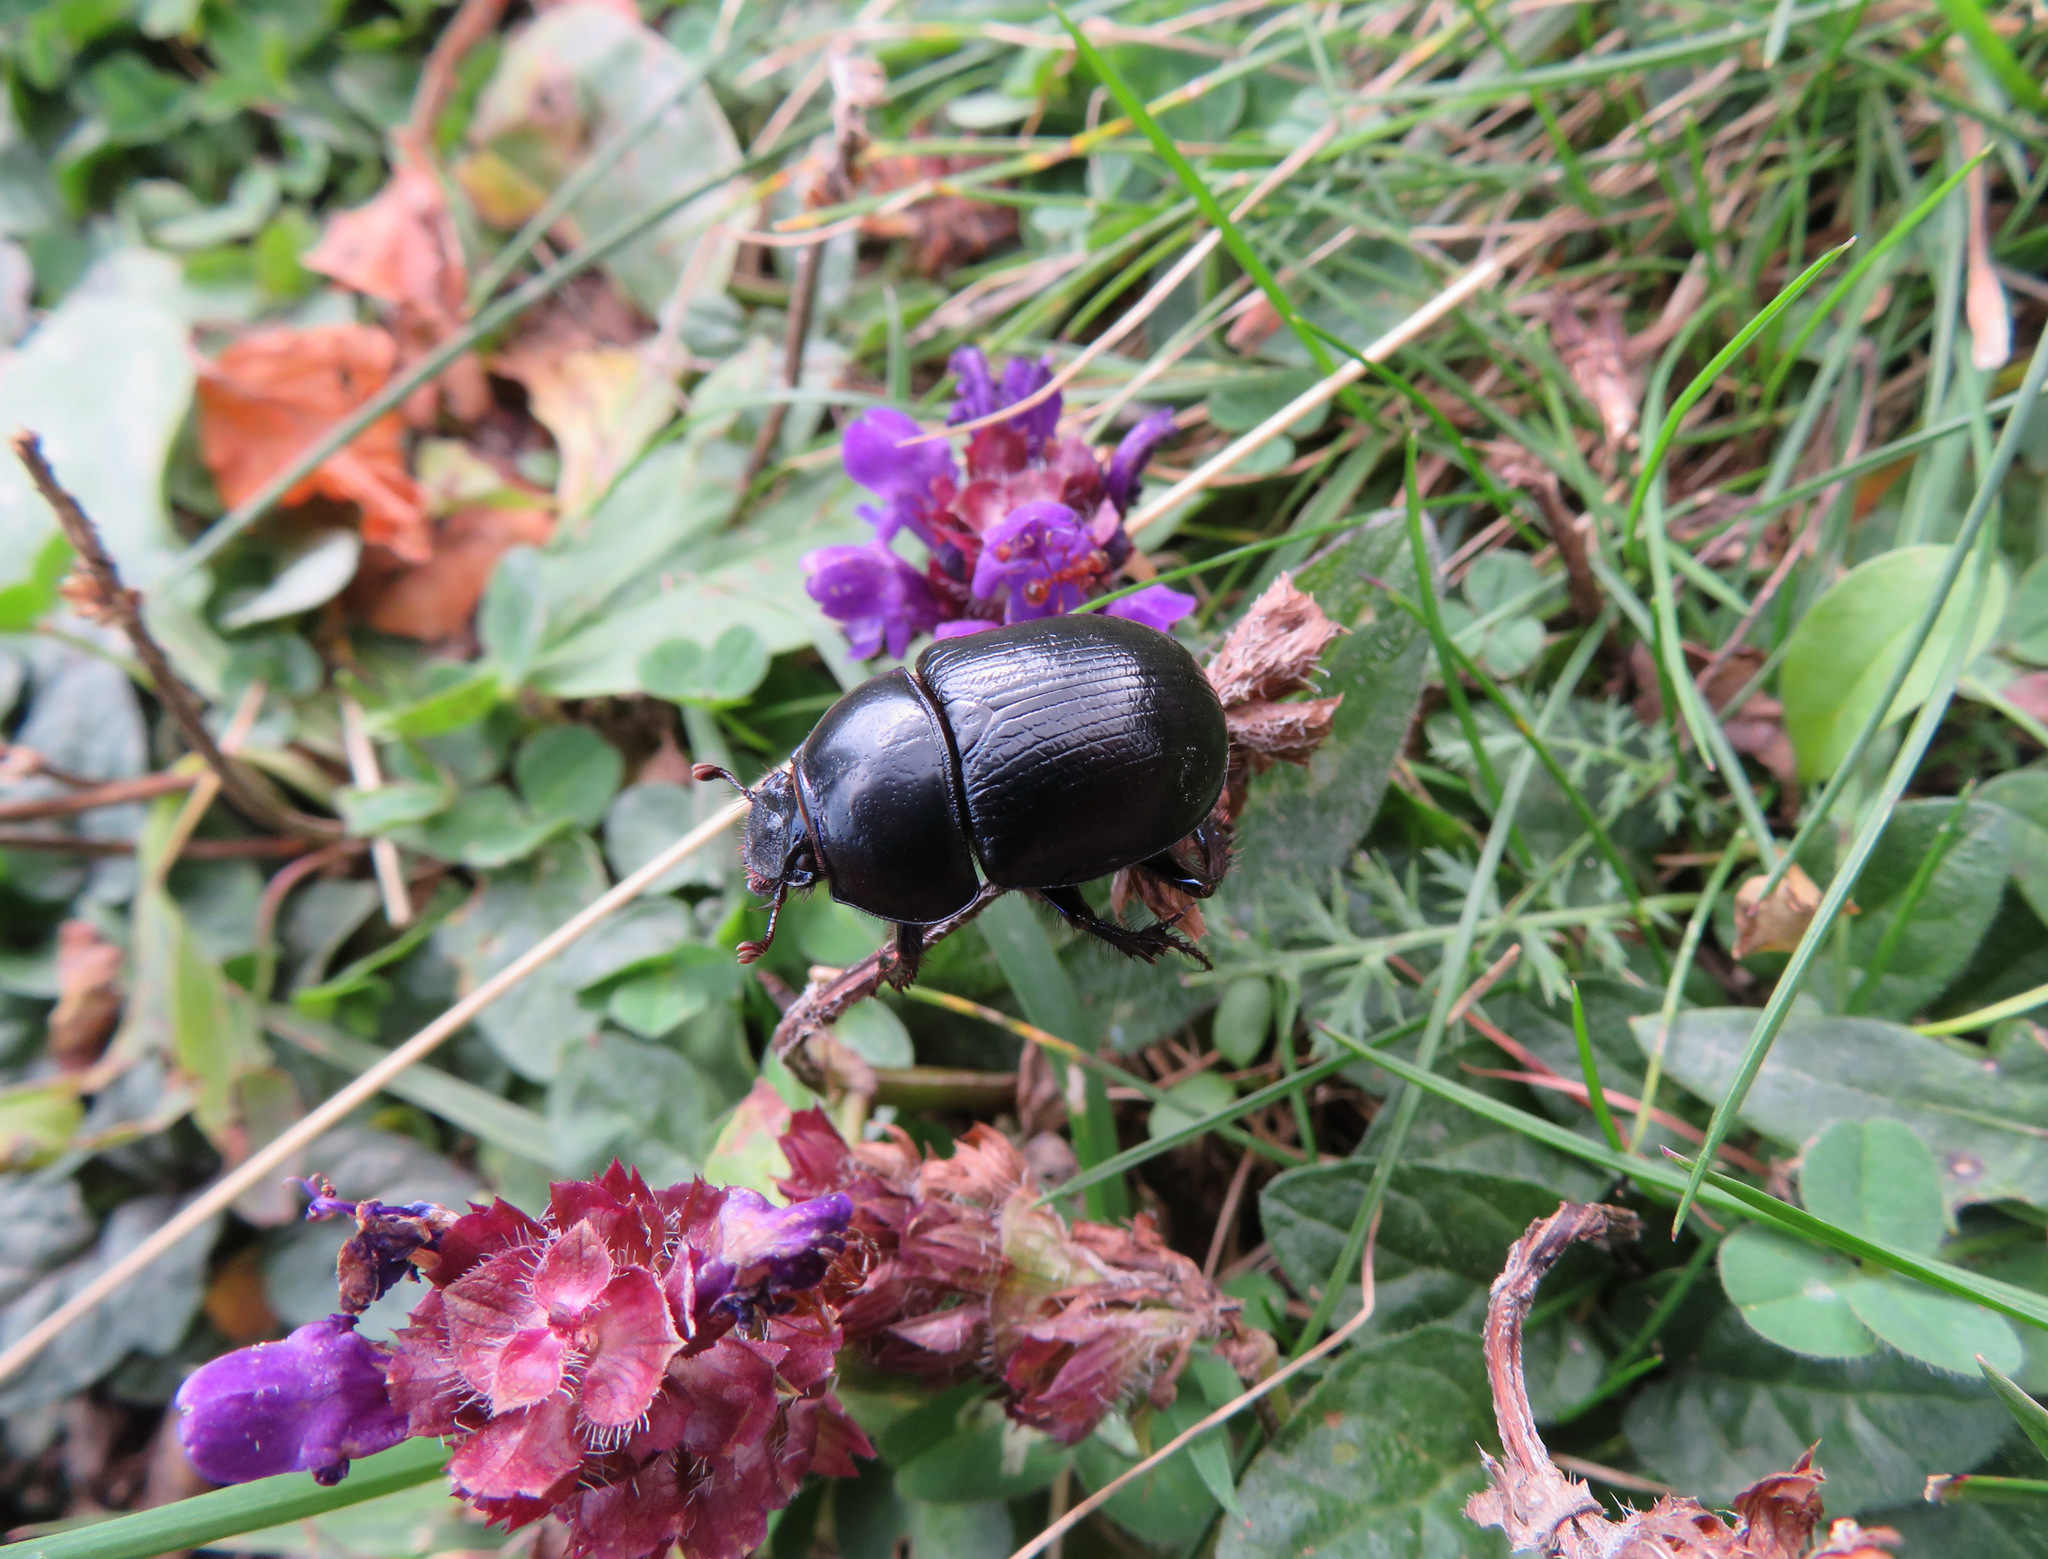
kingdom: Animalia
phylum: Arthropoda
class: Insecta
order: Coleoptera
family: Geotrupidae
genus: Anoplotrupes
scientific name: Anoplotrupes stercorosus
